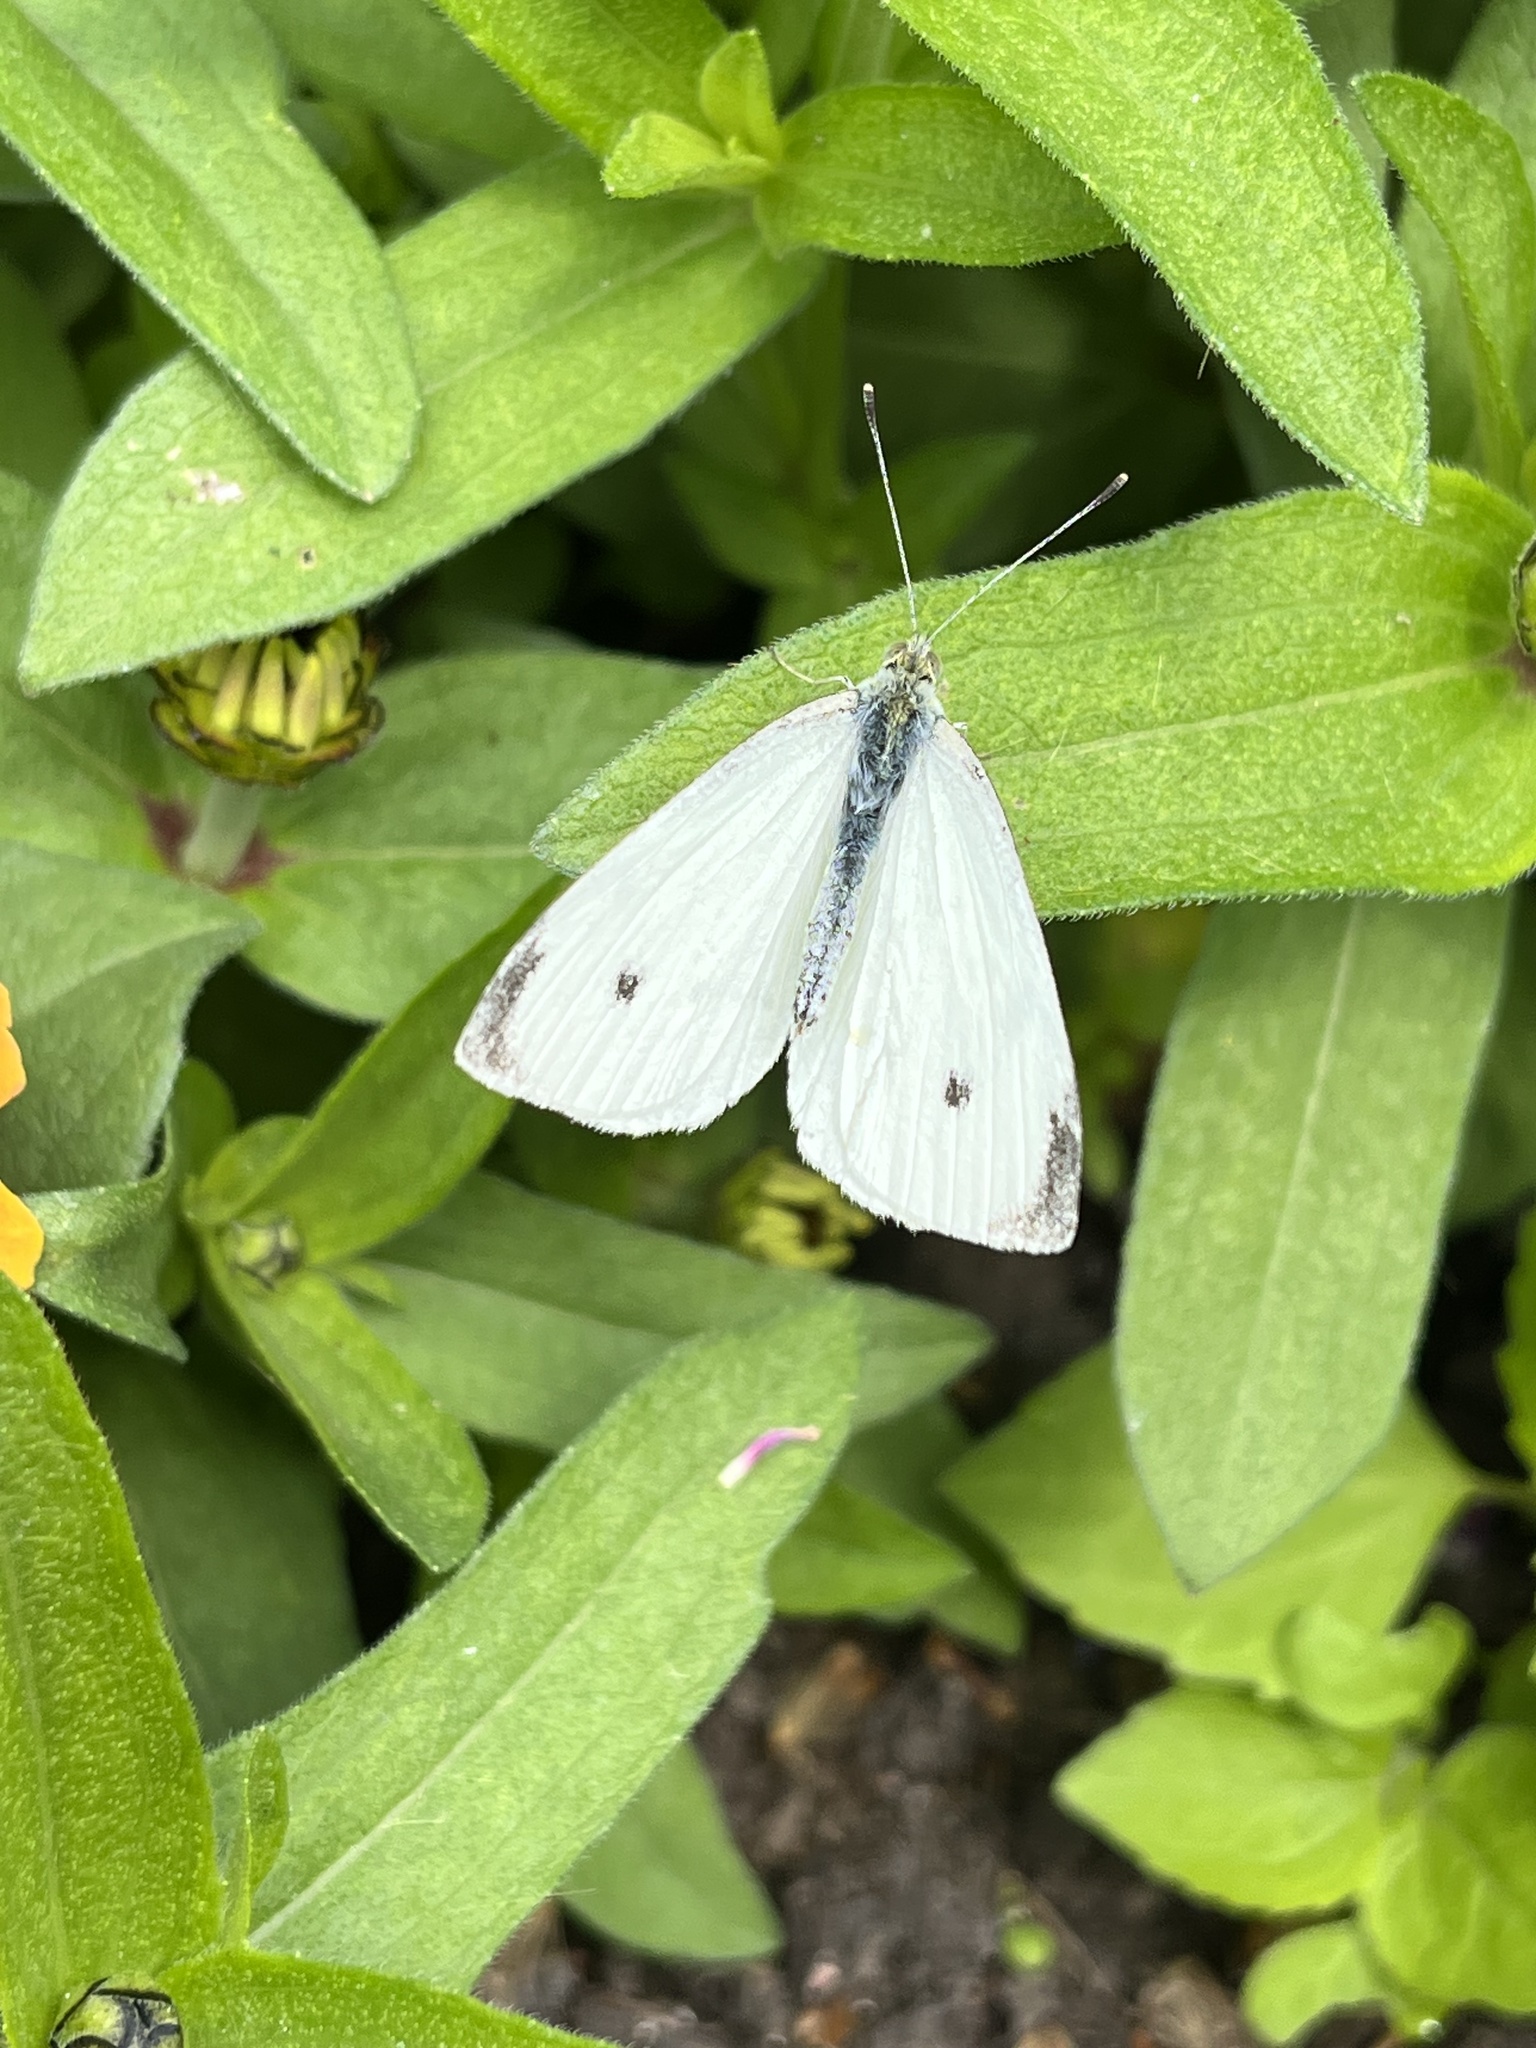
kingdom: Animalia
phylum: Arthropoda
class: Insecta
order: Lepidoptera
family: Pieridae
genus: Pieris
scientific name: Pieris rapae
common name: Small white
